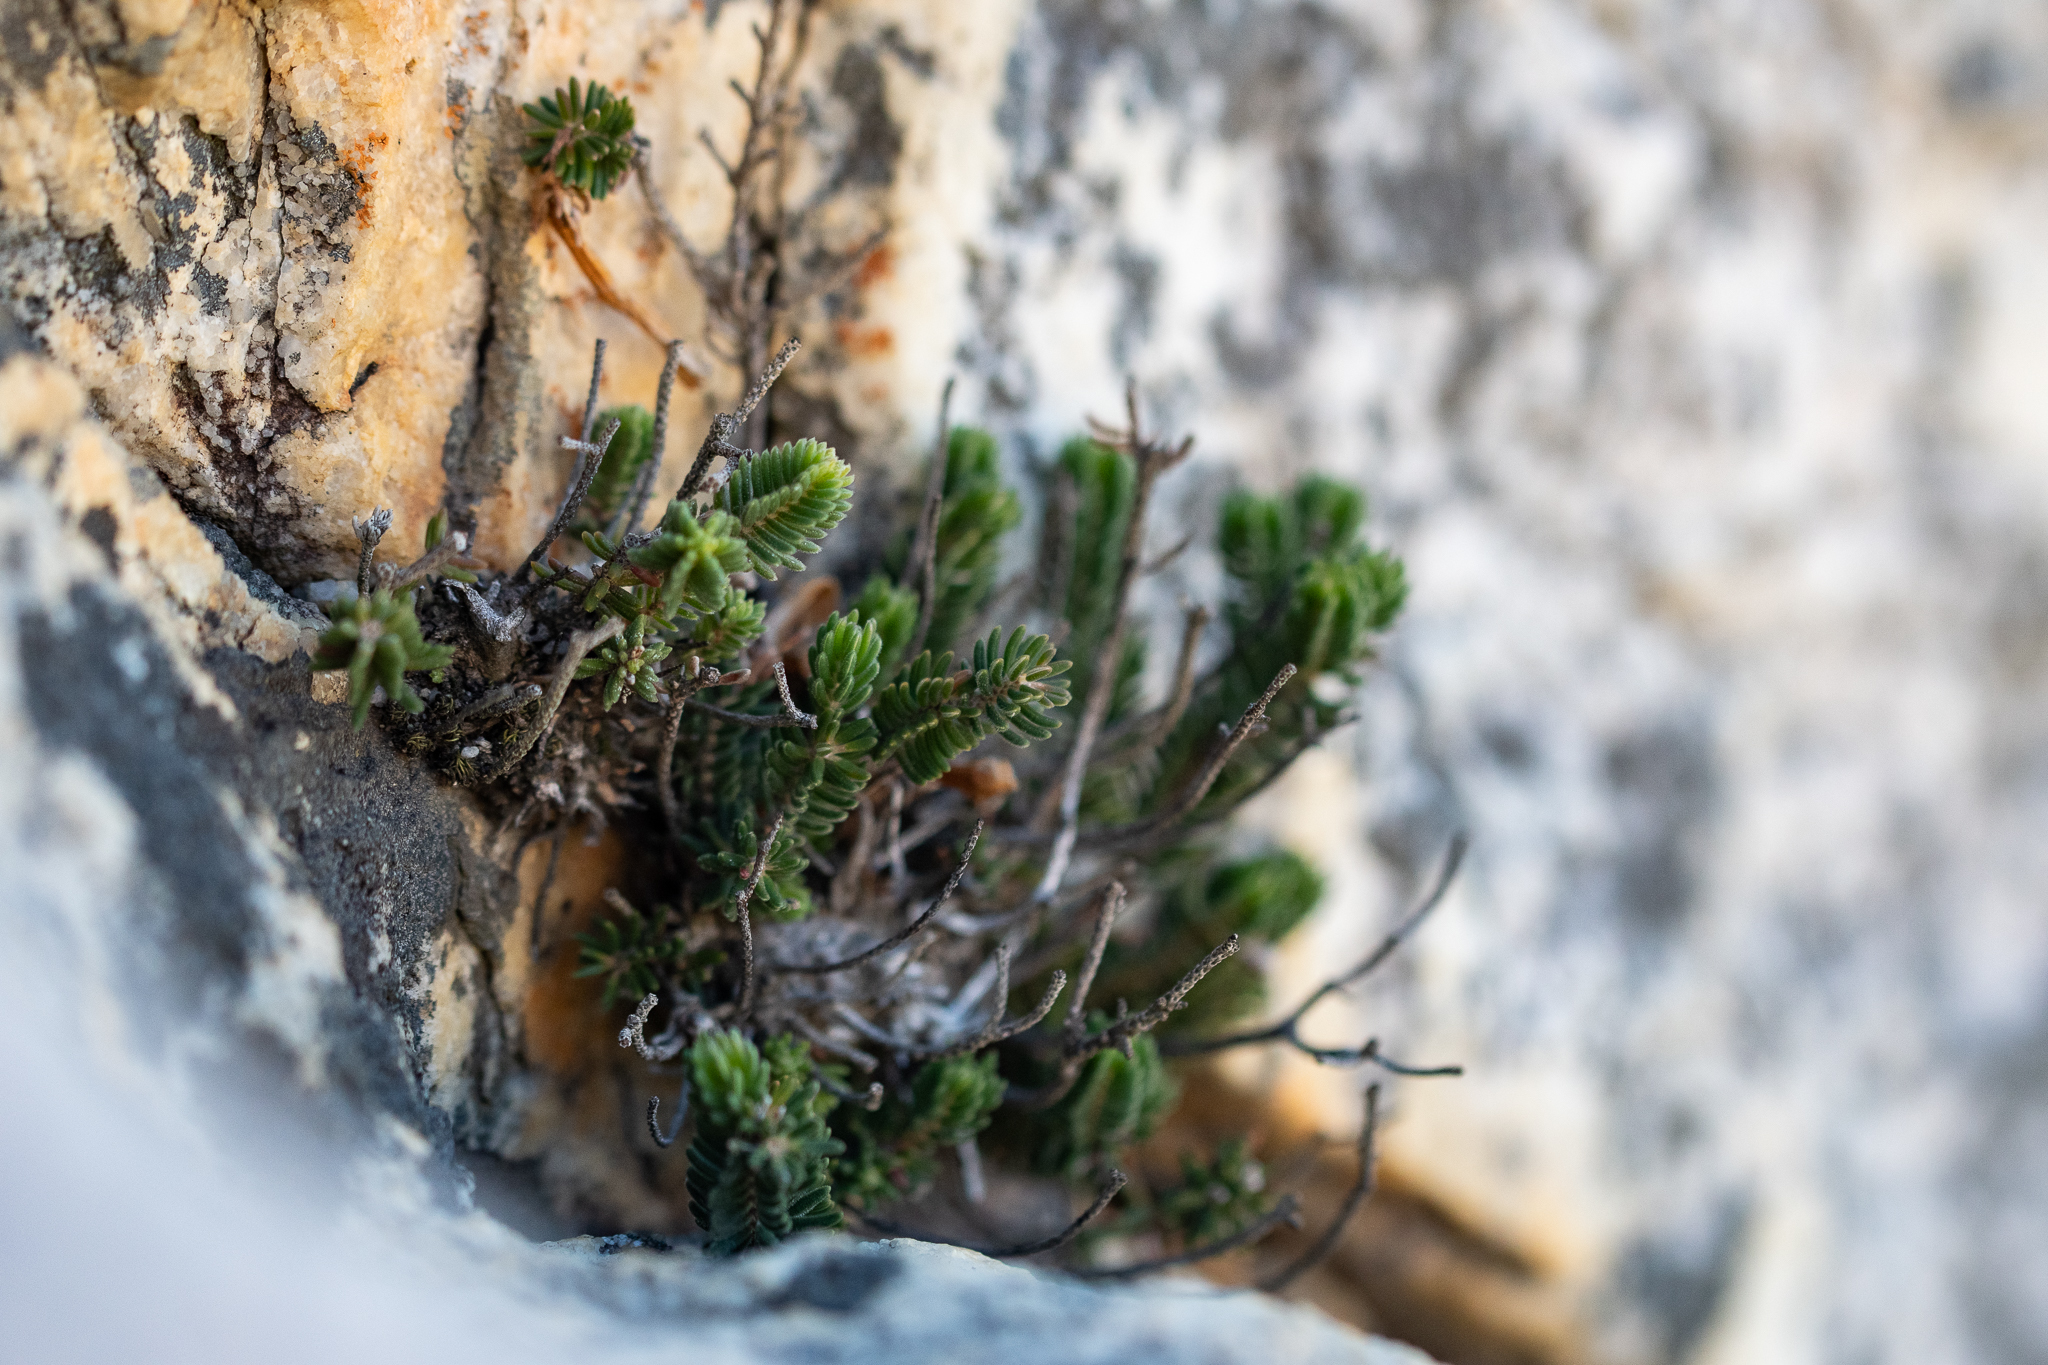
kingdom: Plantae
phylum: Tracheophyta
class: Magnoliopsida
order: Ericales
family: Ericaceae
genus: Erica
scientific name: Erica amidae
